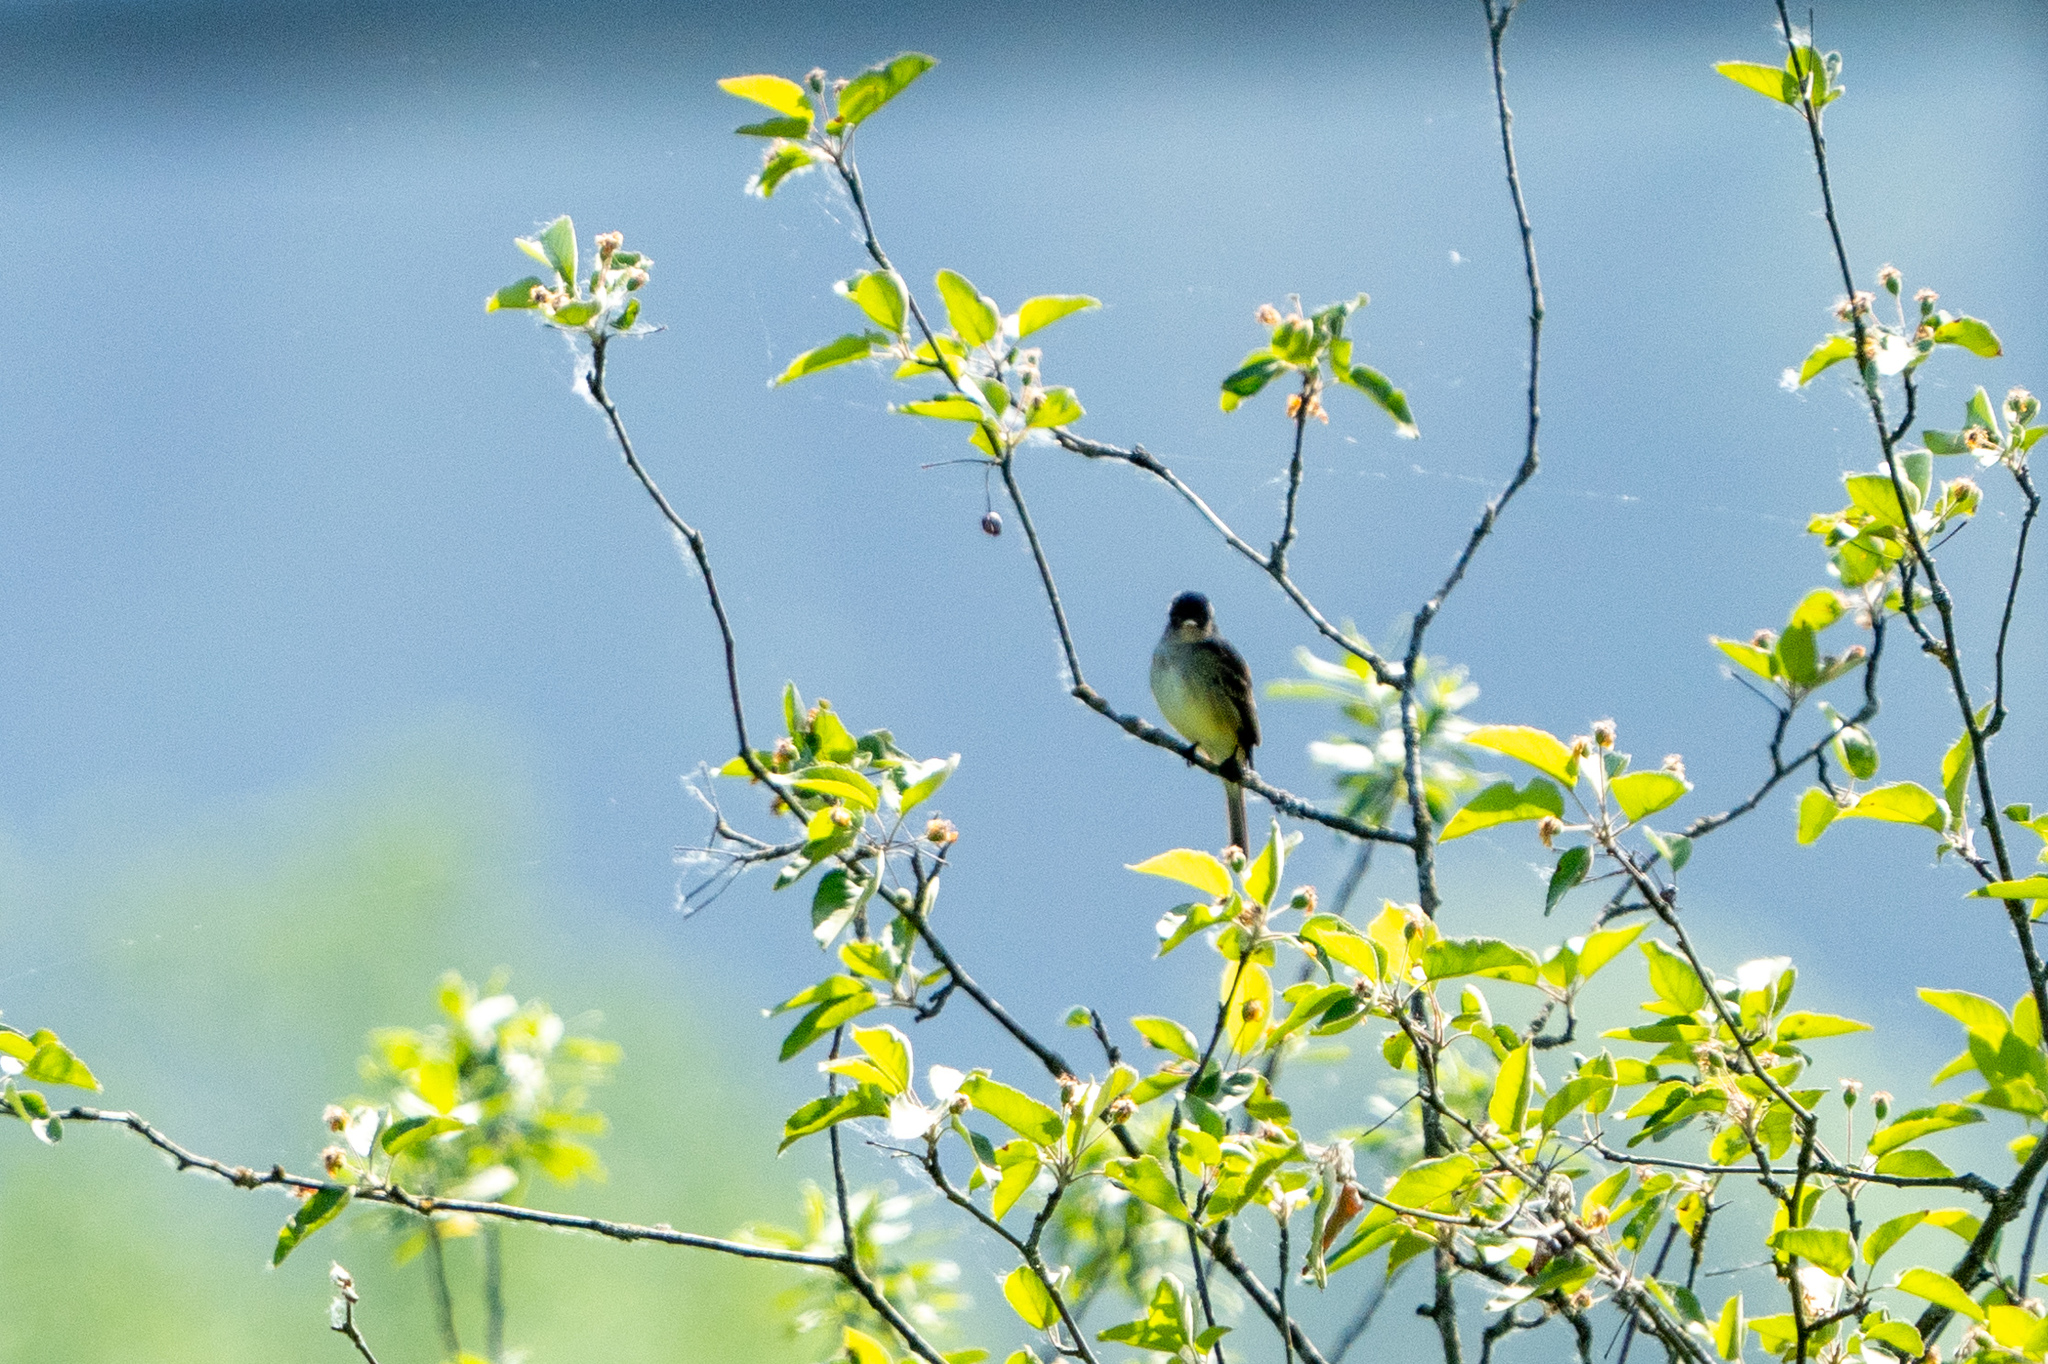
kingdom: Animalia
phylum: Chordata
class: Aves
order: Passeriformes
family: Tyrannidae
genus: Empidonax
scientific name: Empidonax traillii
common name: Willow flycatcher
